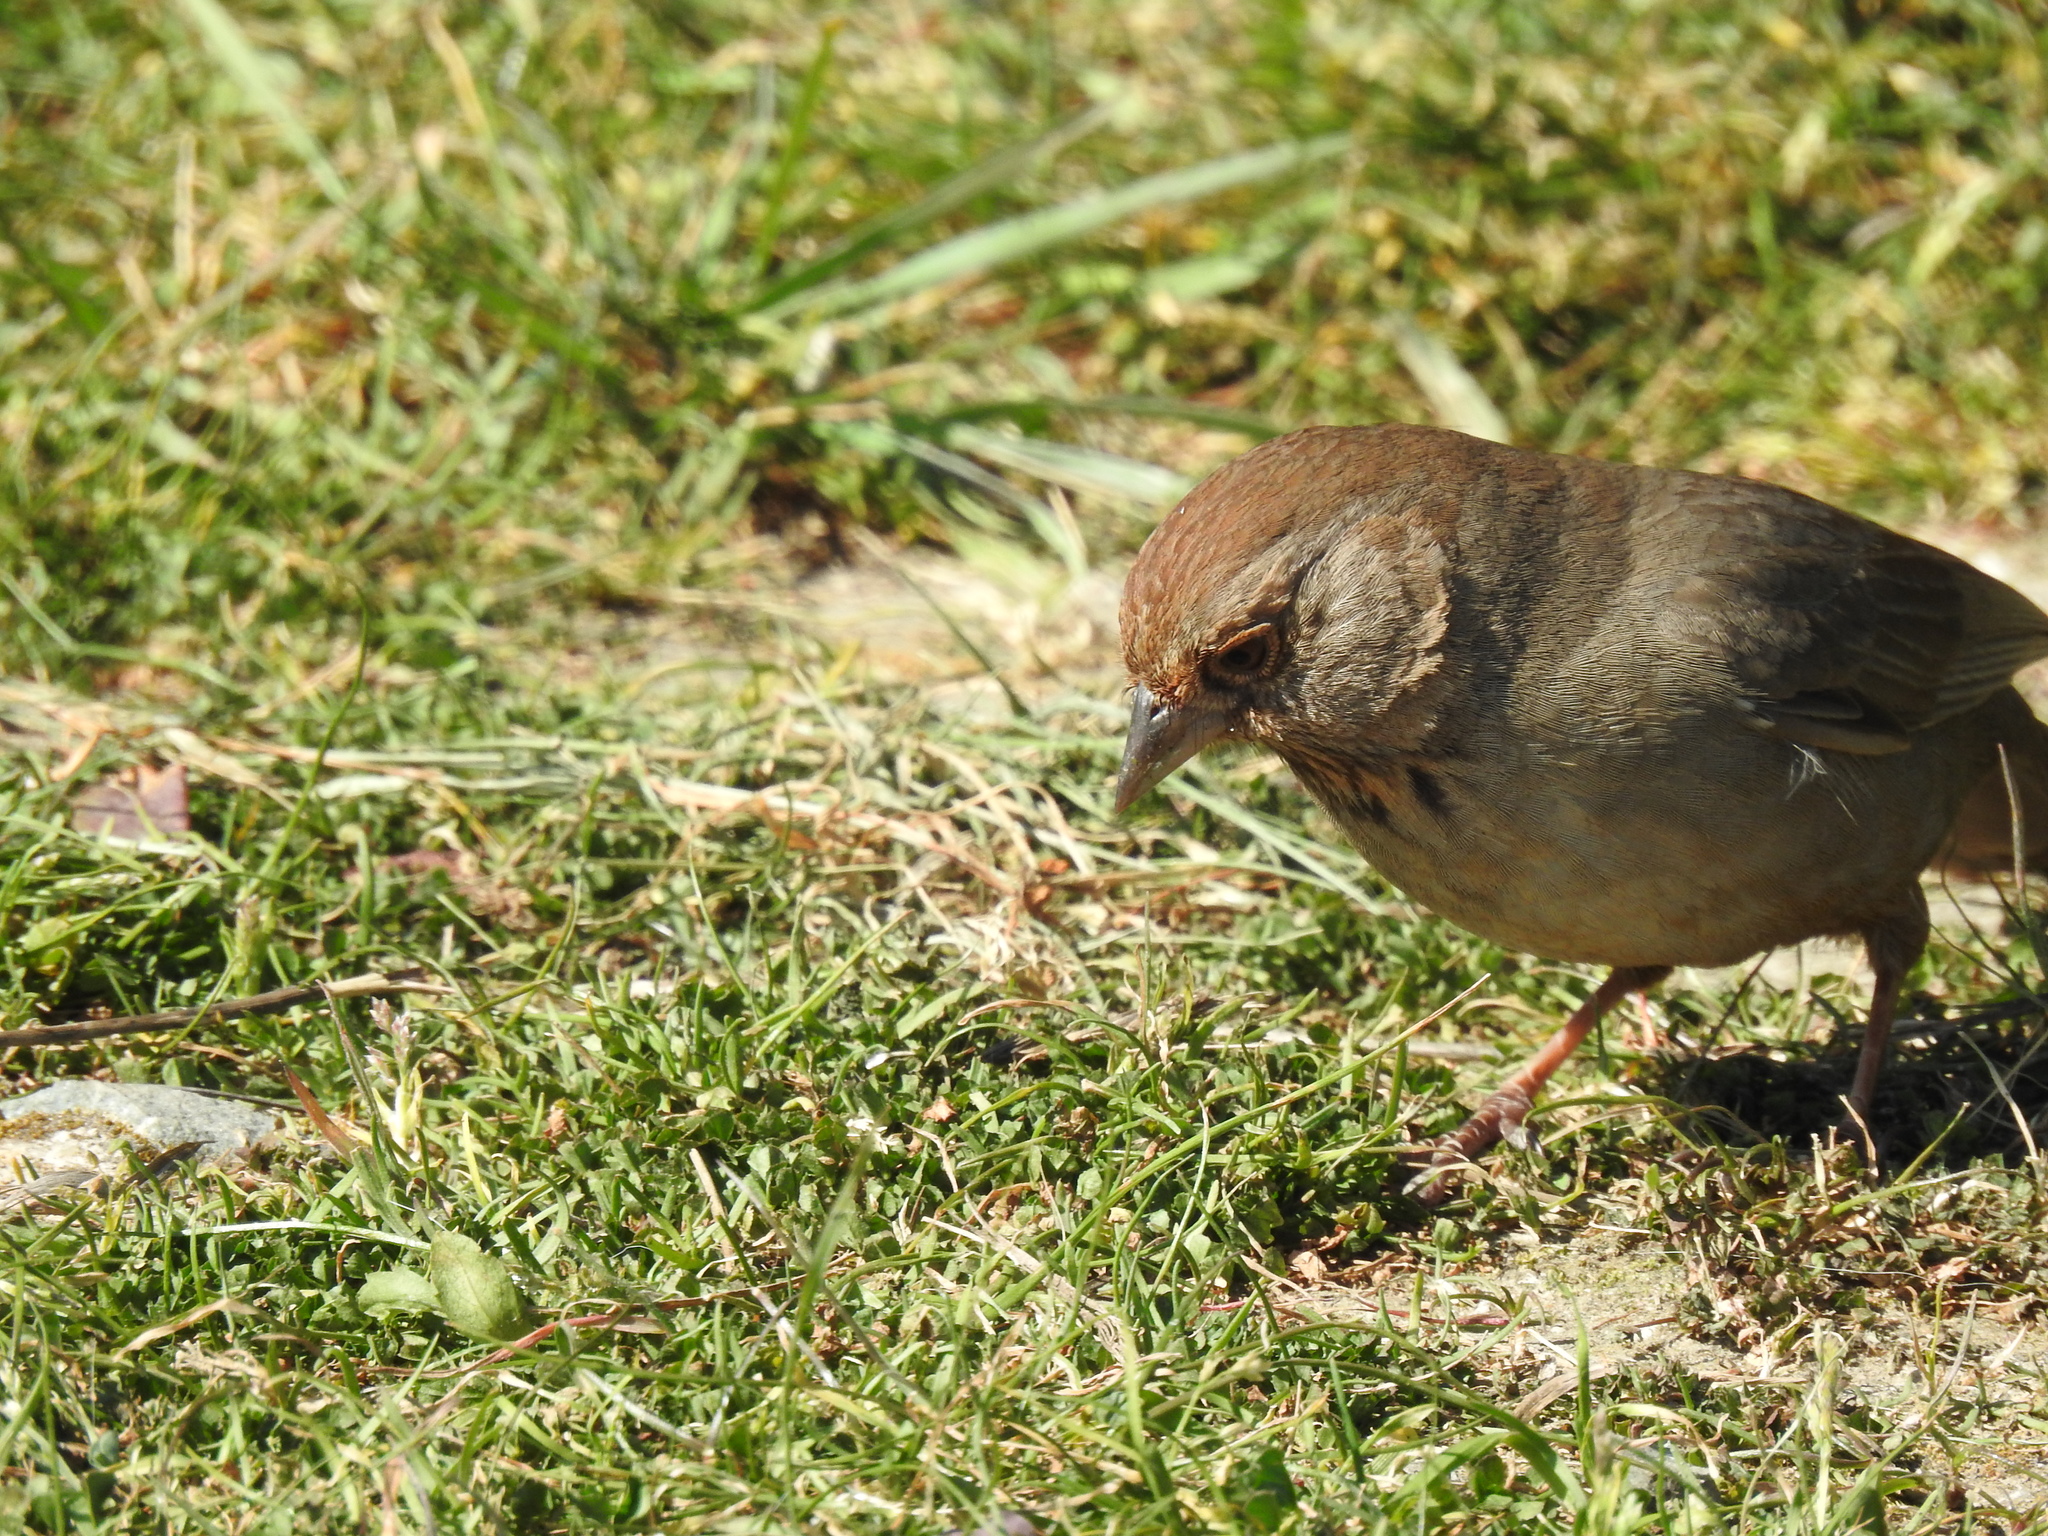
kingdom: Animalia
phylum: Chordata
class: Aves
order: Passeriformes
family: Passerellidae
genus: Melozone
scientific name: Melozone crissalis
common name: California towhee
